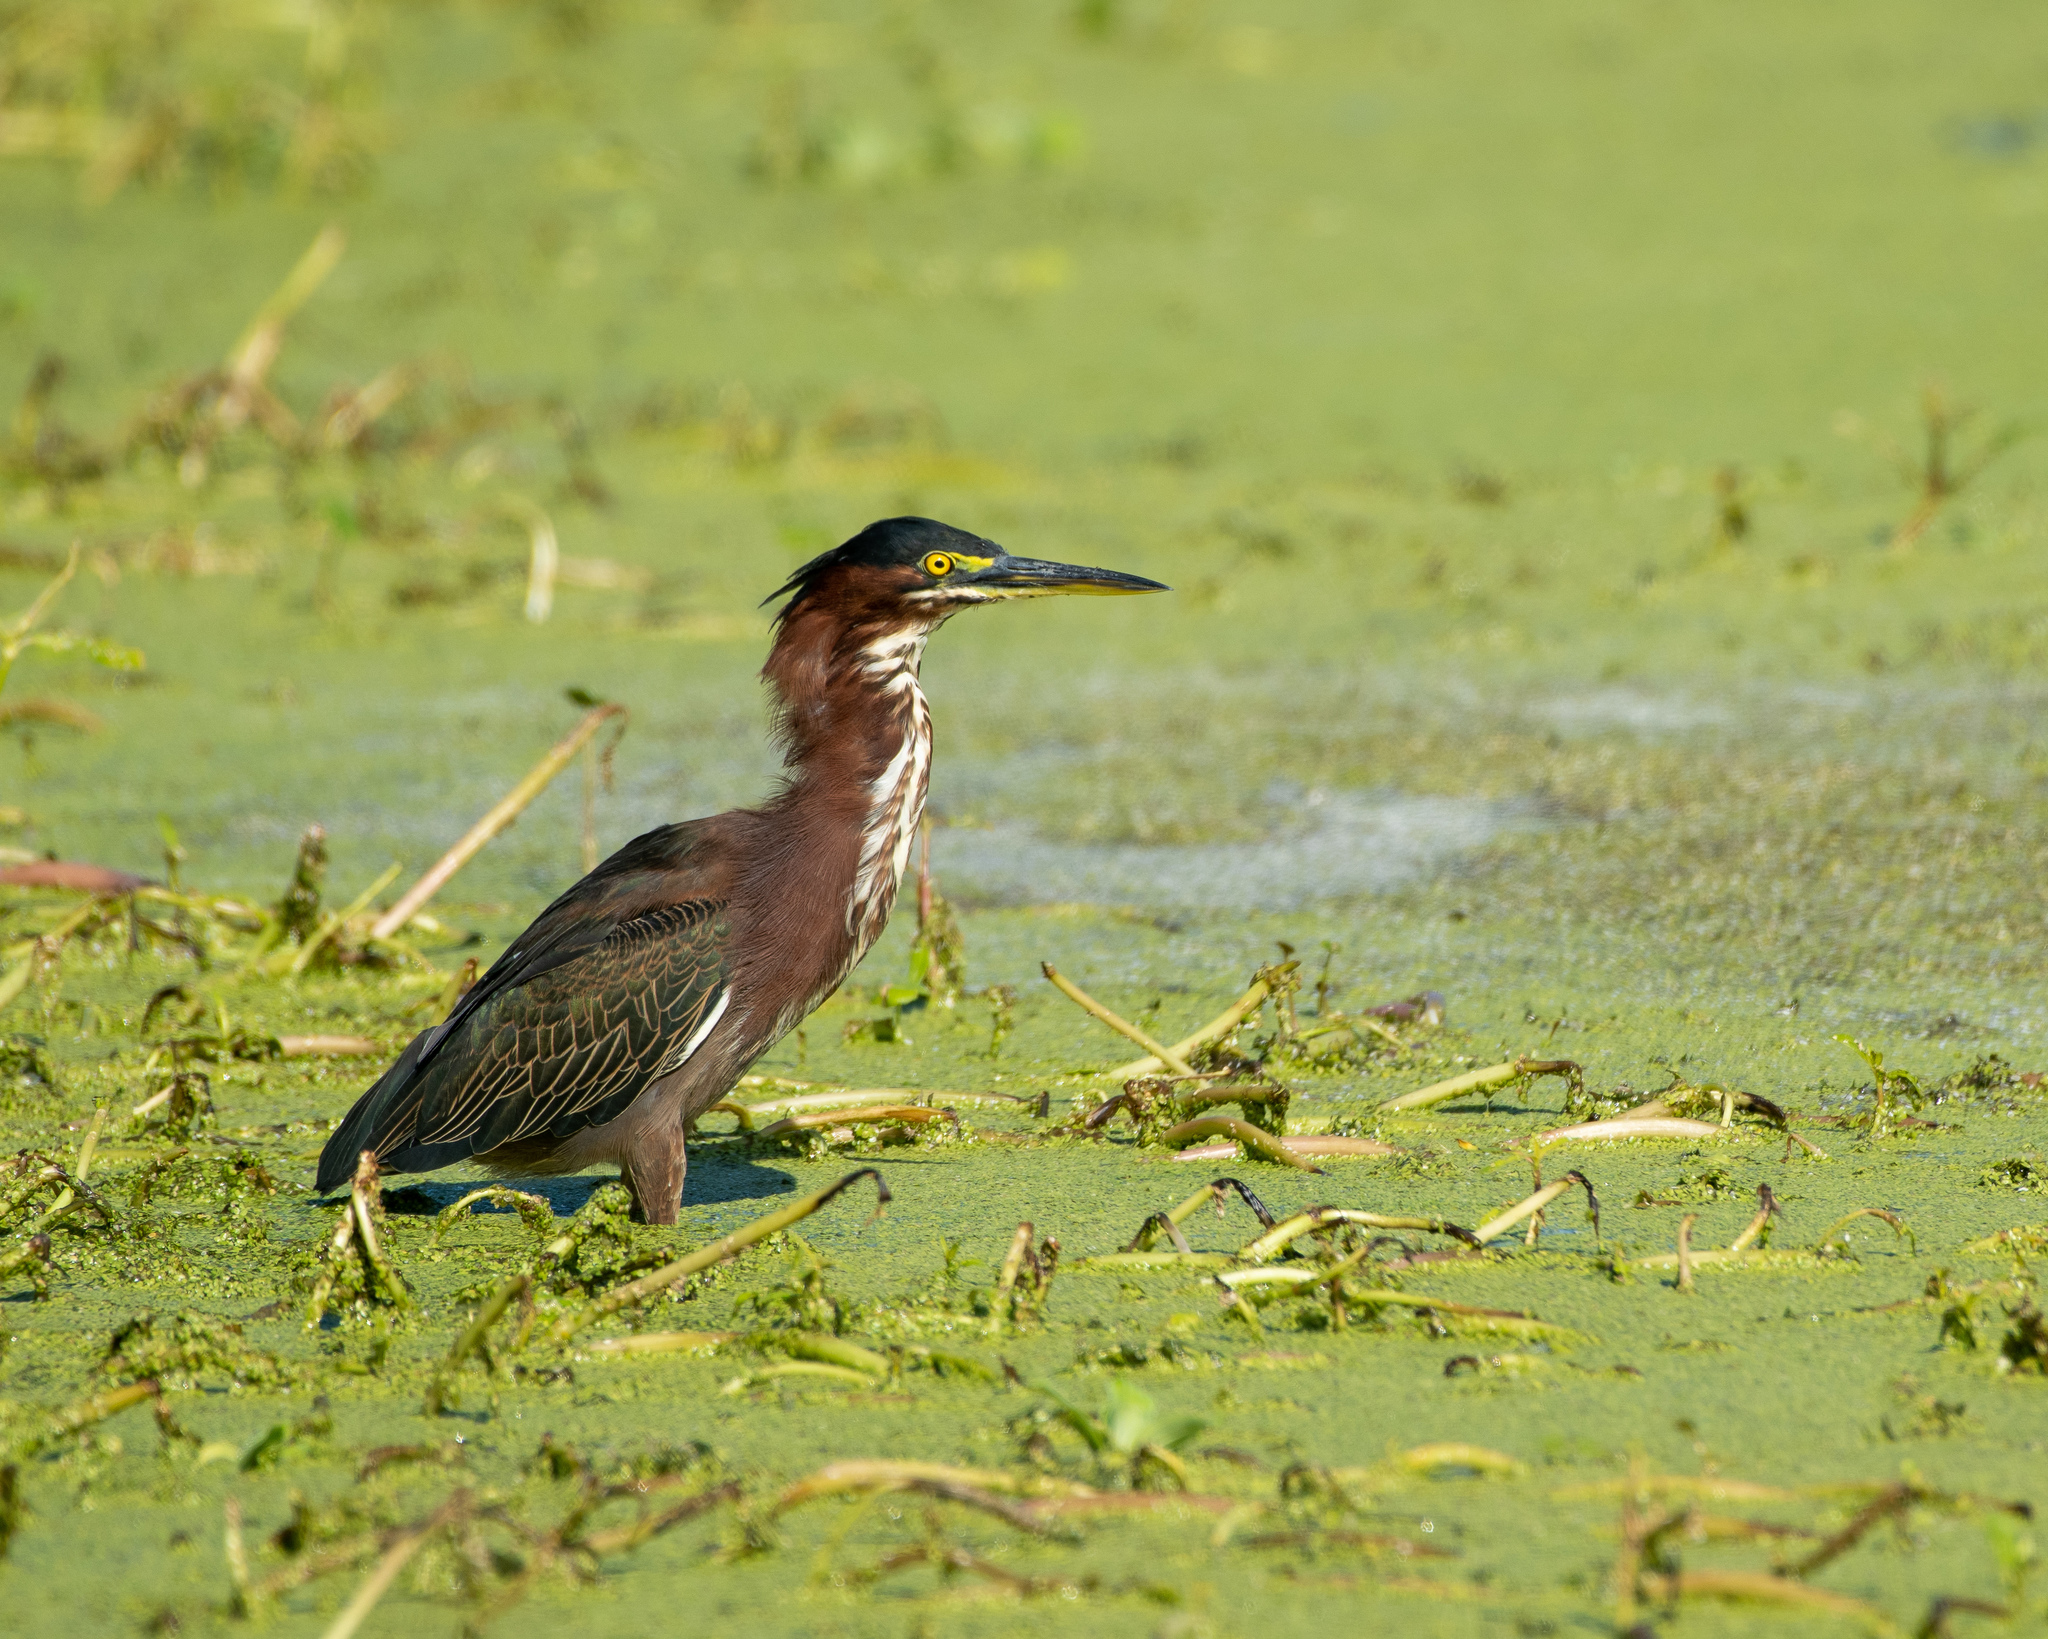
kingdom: Animalia
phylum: Chordata
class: Aves
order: Pelecaniformes
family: Ardeidae
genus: Butorides
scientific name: Butorides virescens
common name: Green heron
